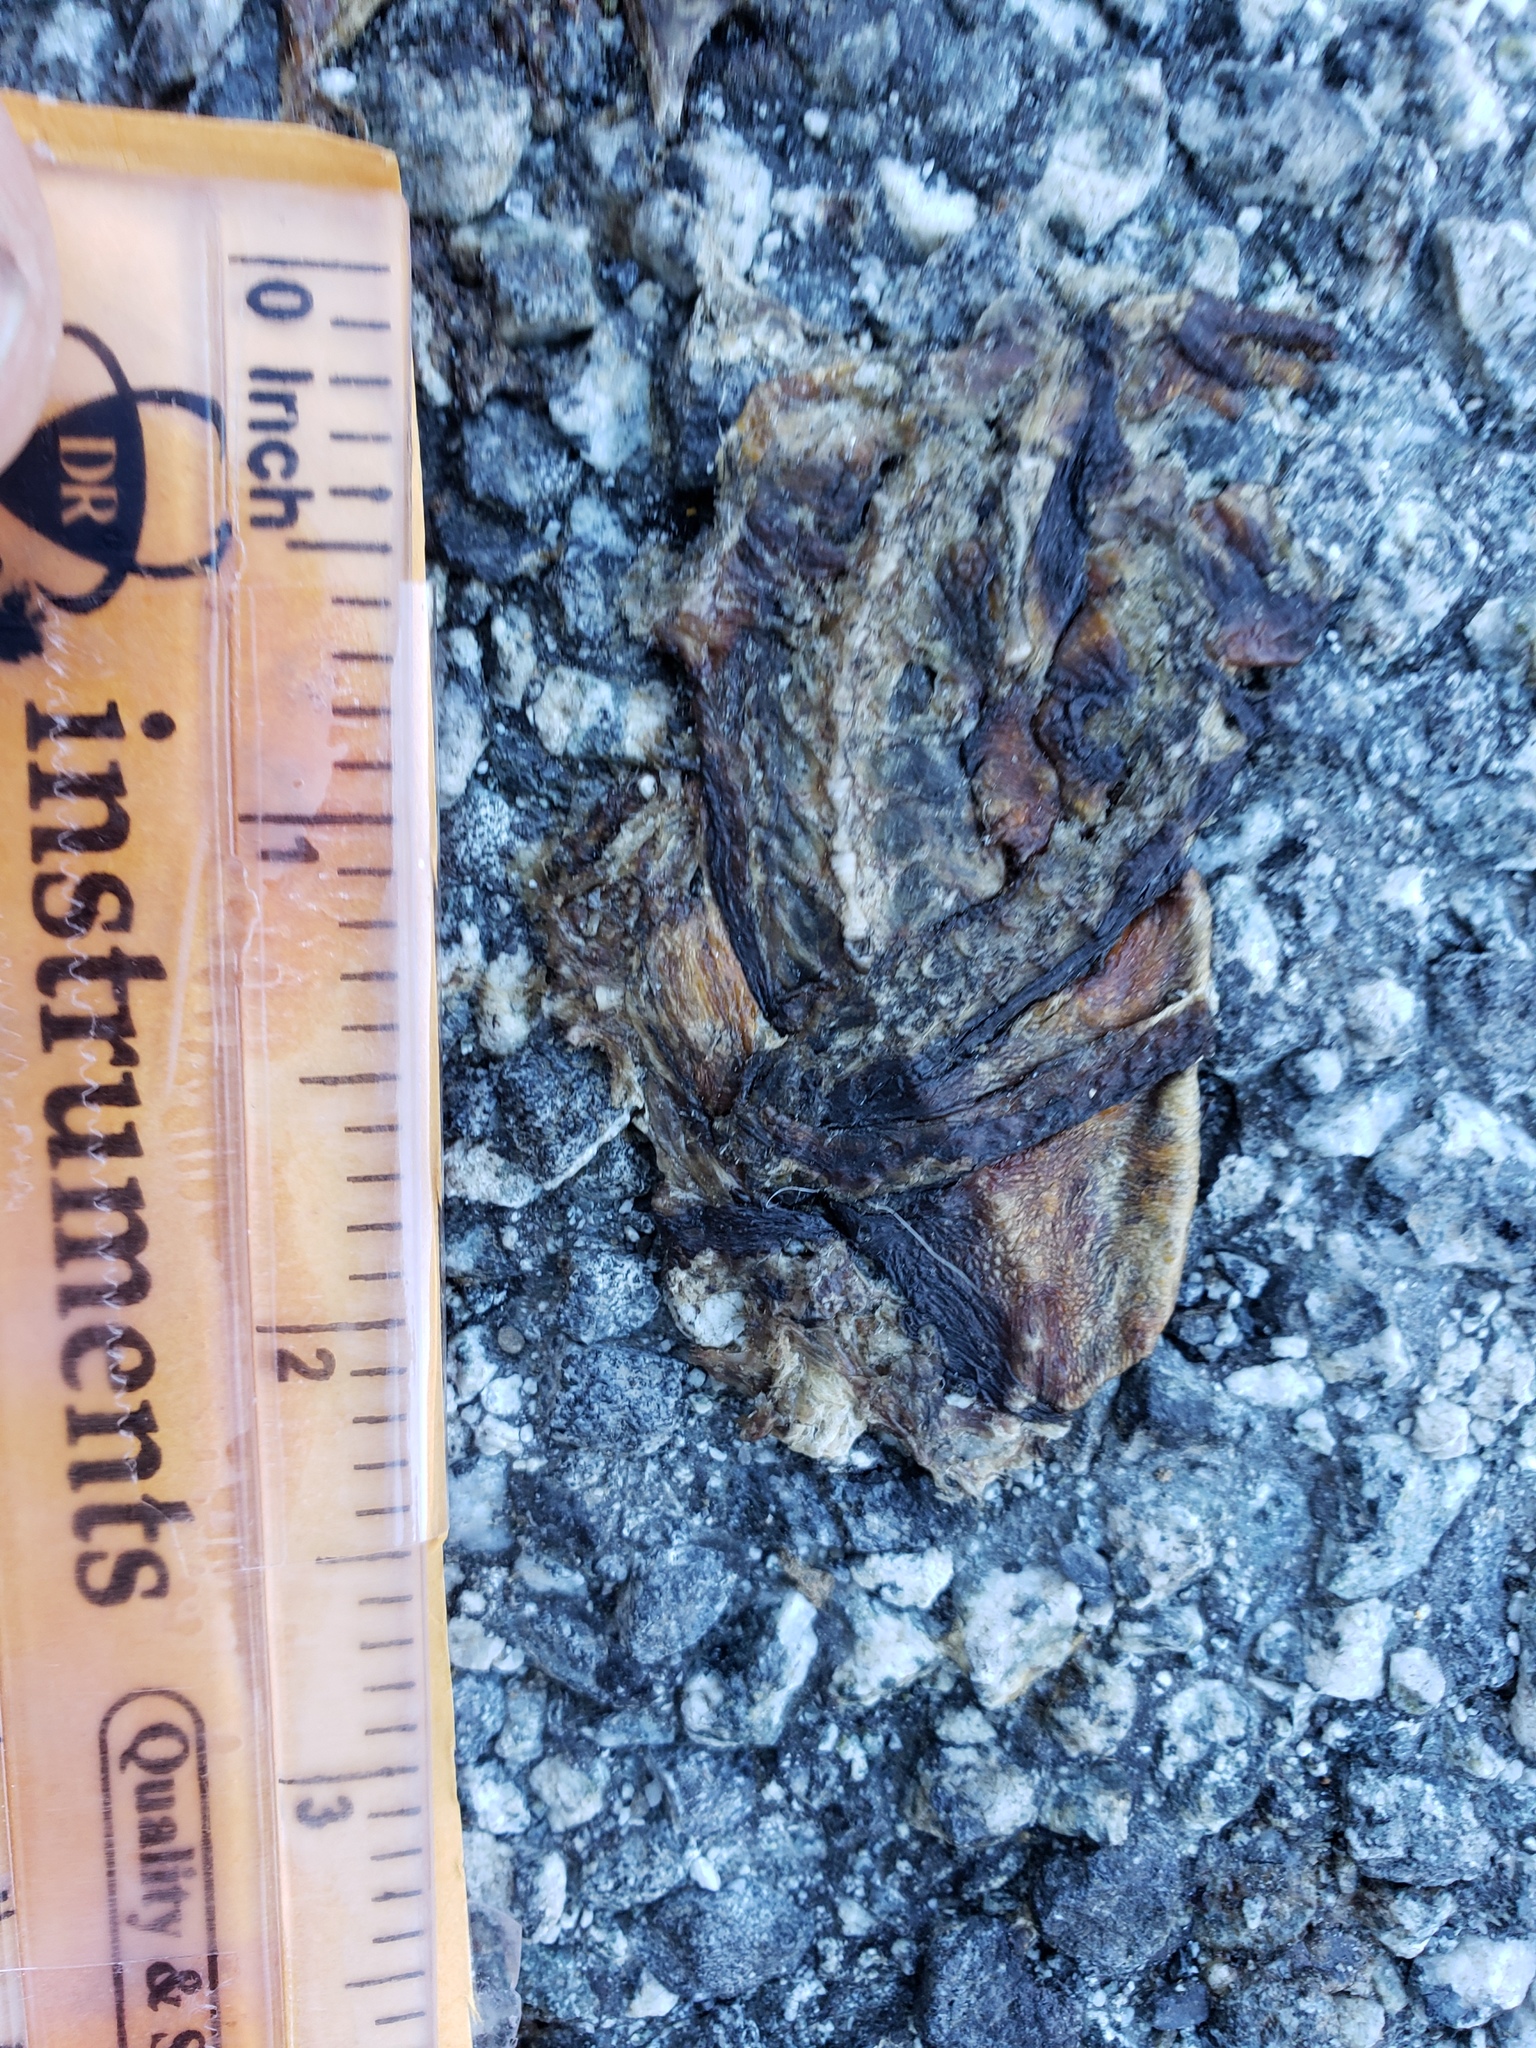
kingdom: Animalia
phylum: Chordata
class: Amphibia
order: Caudata
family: Salamandridae
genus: Taricha
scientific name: Taricha
